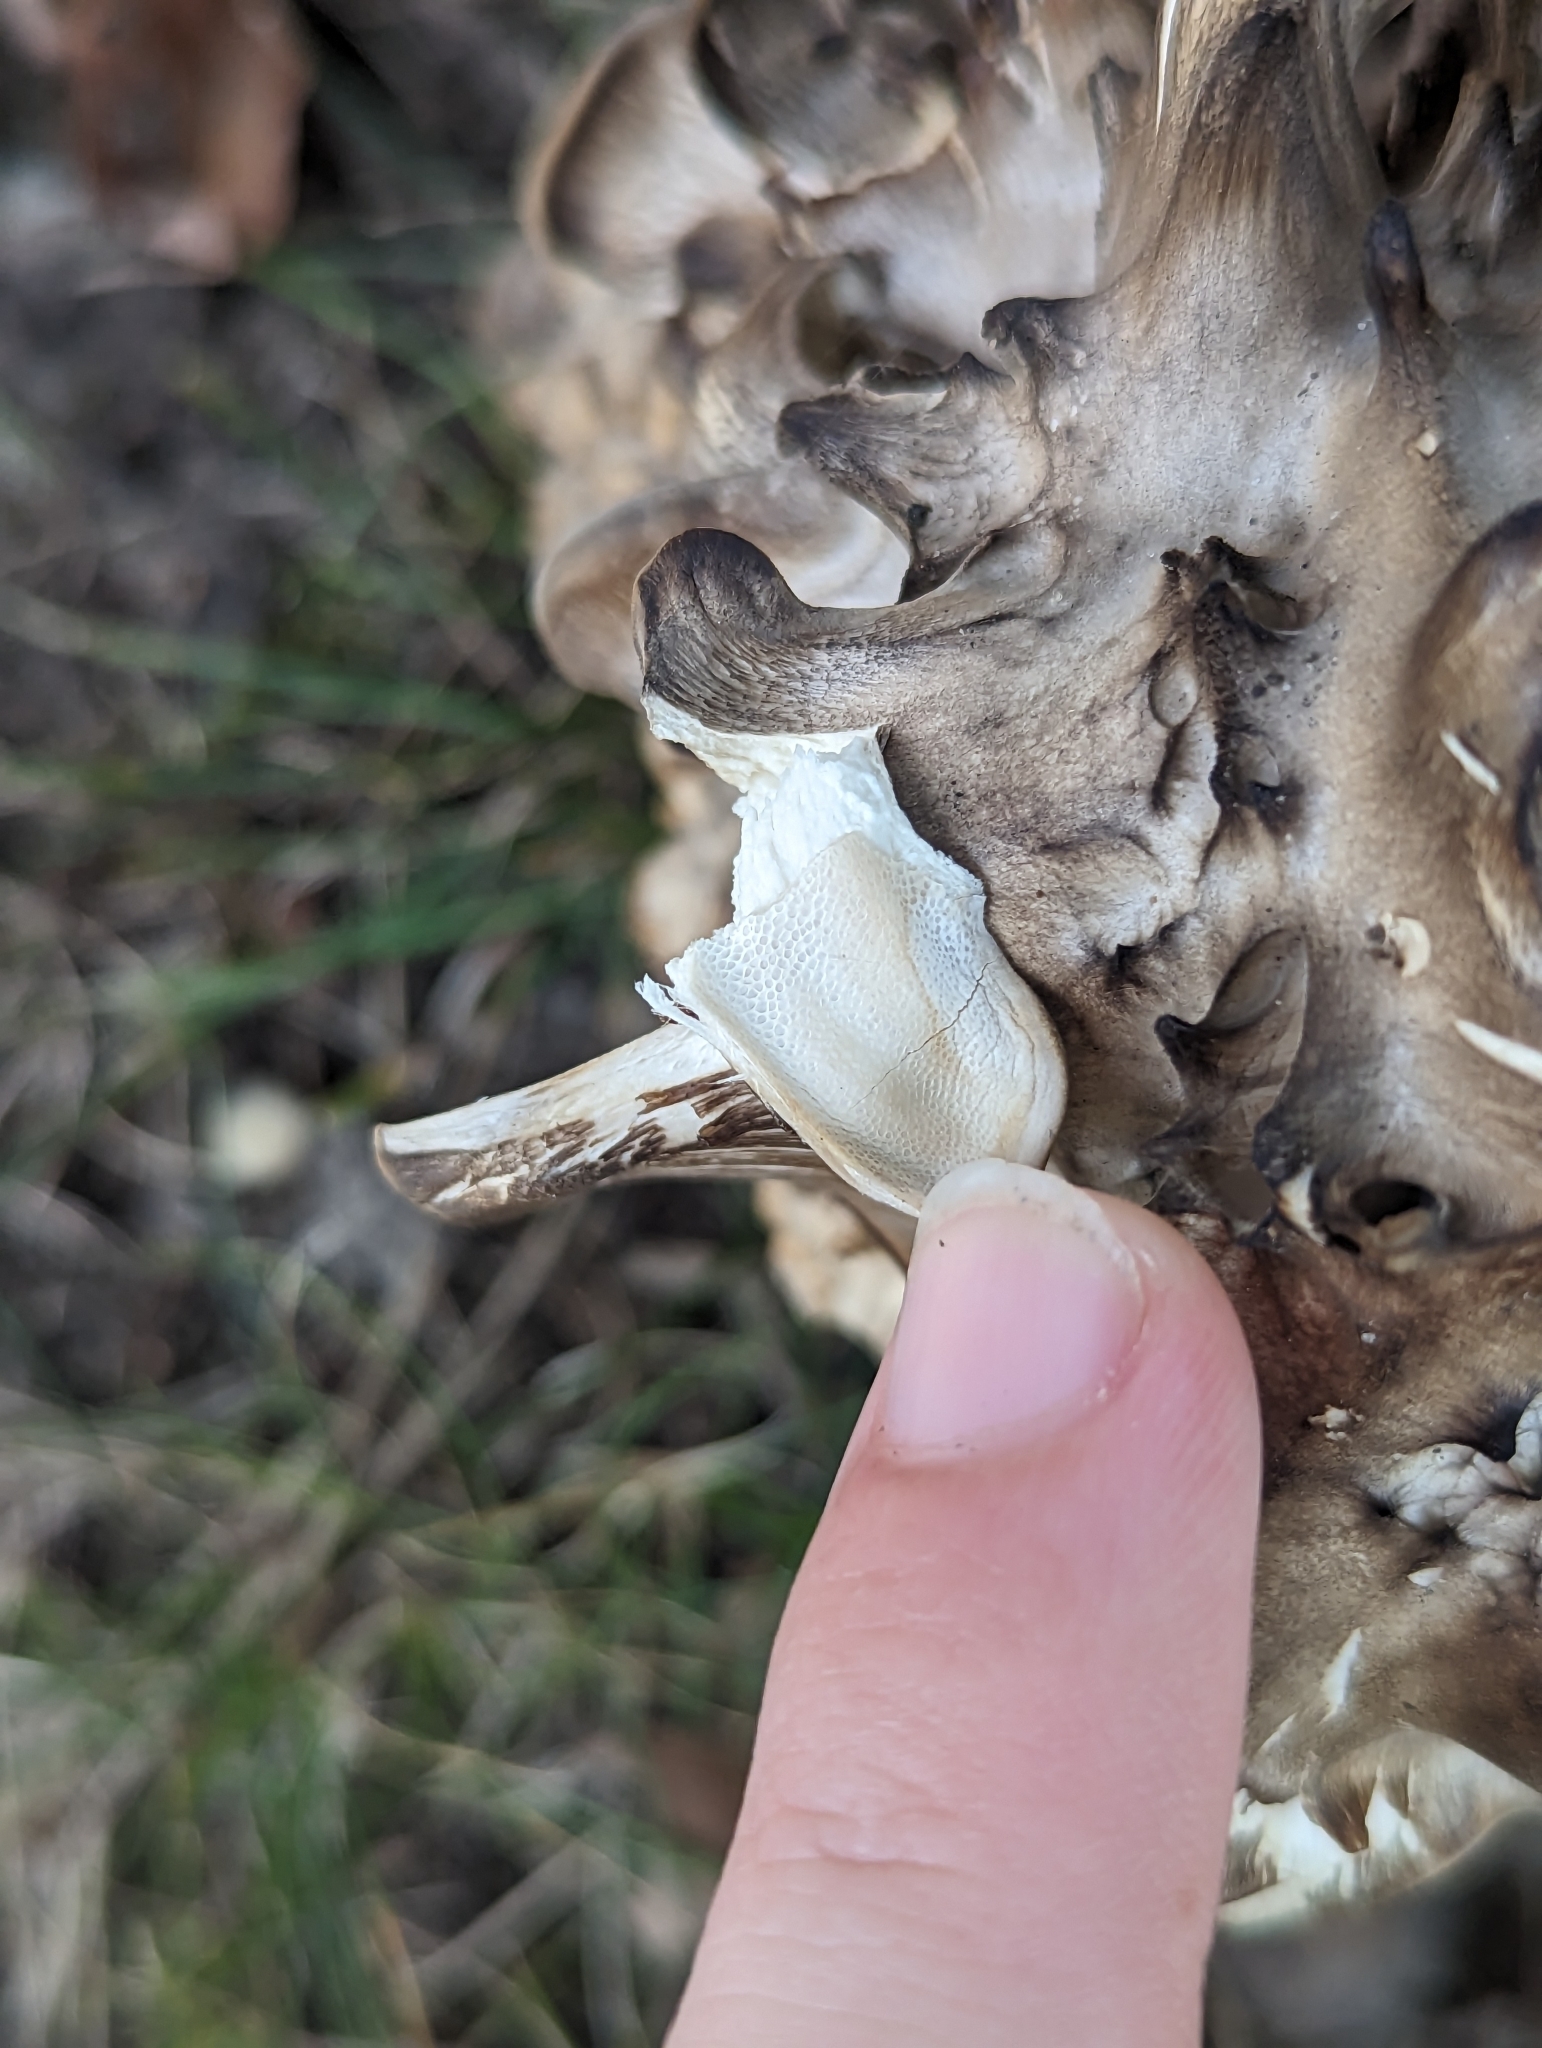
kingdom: Fungi
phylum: Basidiomycota
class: Agaricomycetes
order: Polyporales
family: Grifolaceae
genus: Grifola
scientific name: Grifola frondosa
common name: Hen of the woods
